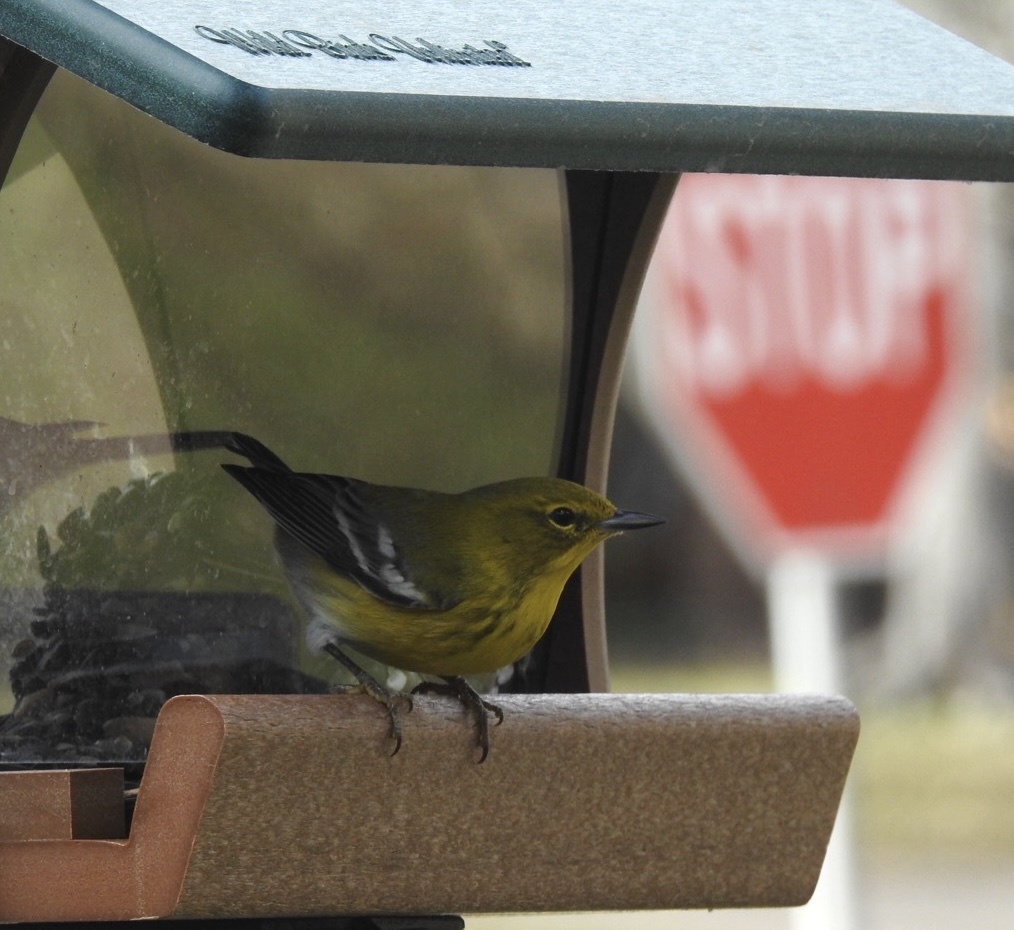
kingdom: Animalia
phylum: Chordata
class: Aves
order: Passeriformes
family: Parulidae
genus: Setophaga
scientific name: Setophaga pinus
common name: Pine warbler
